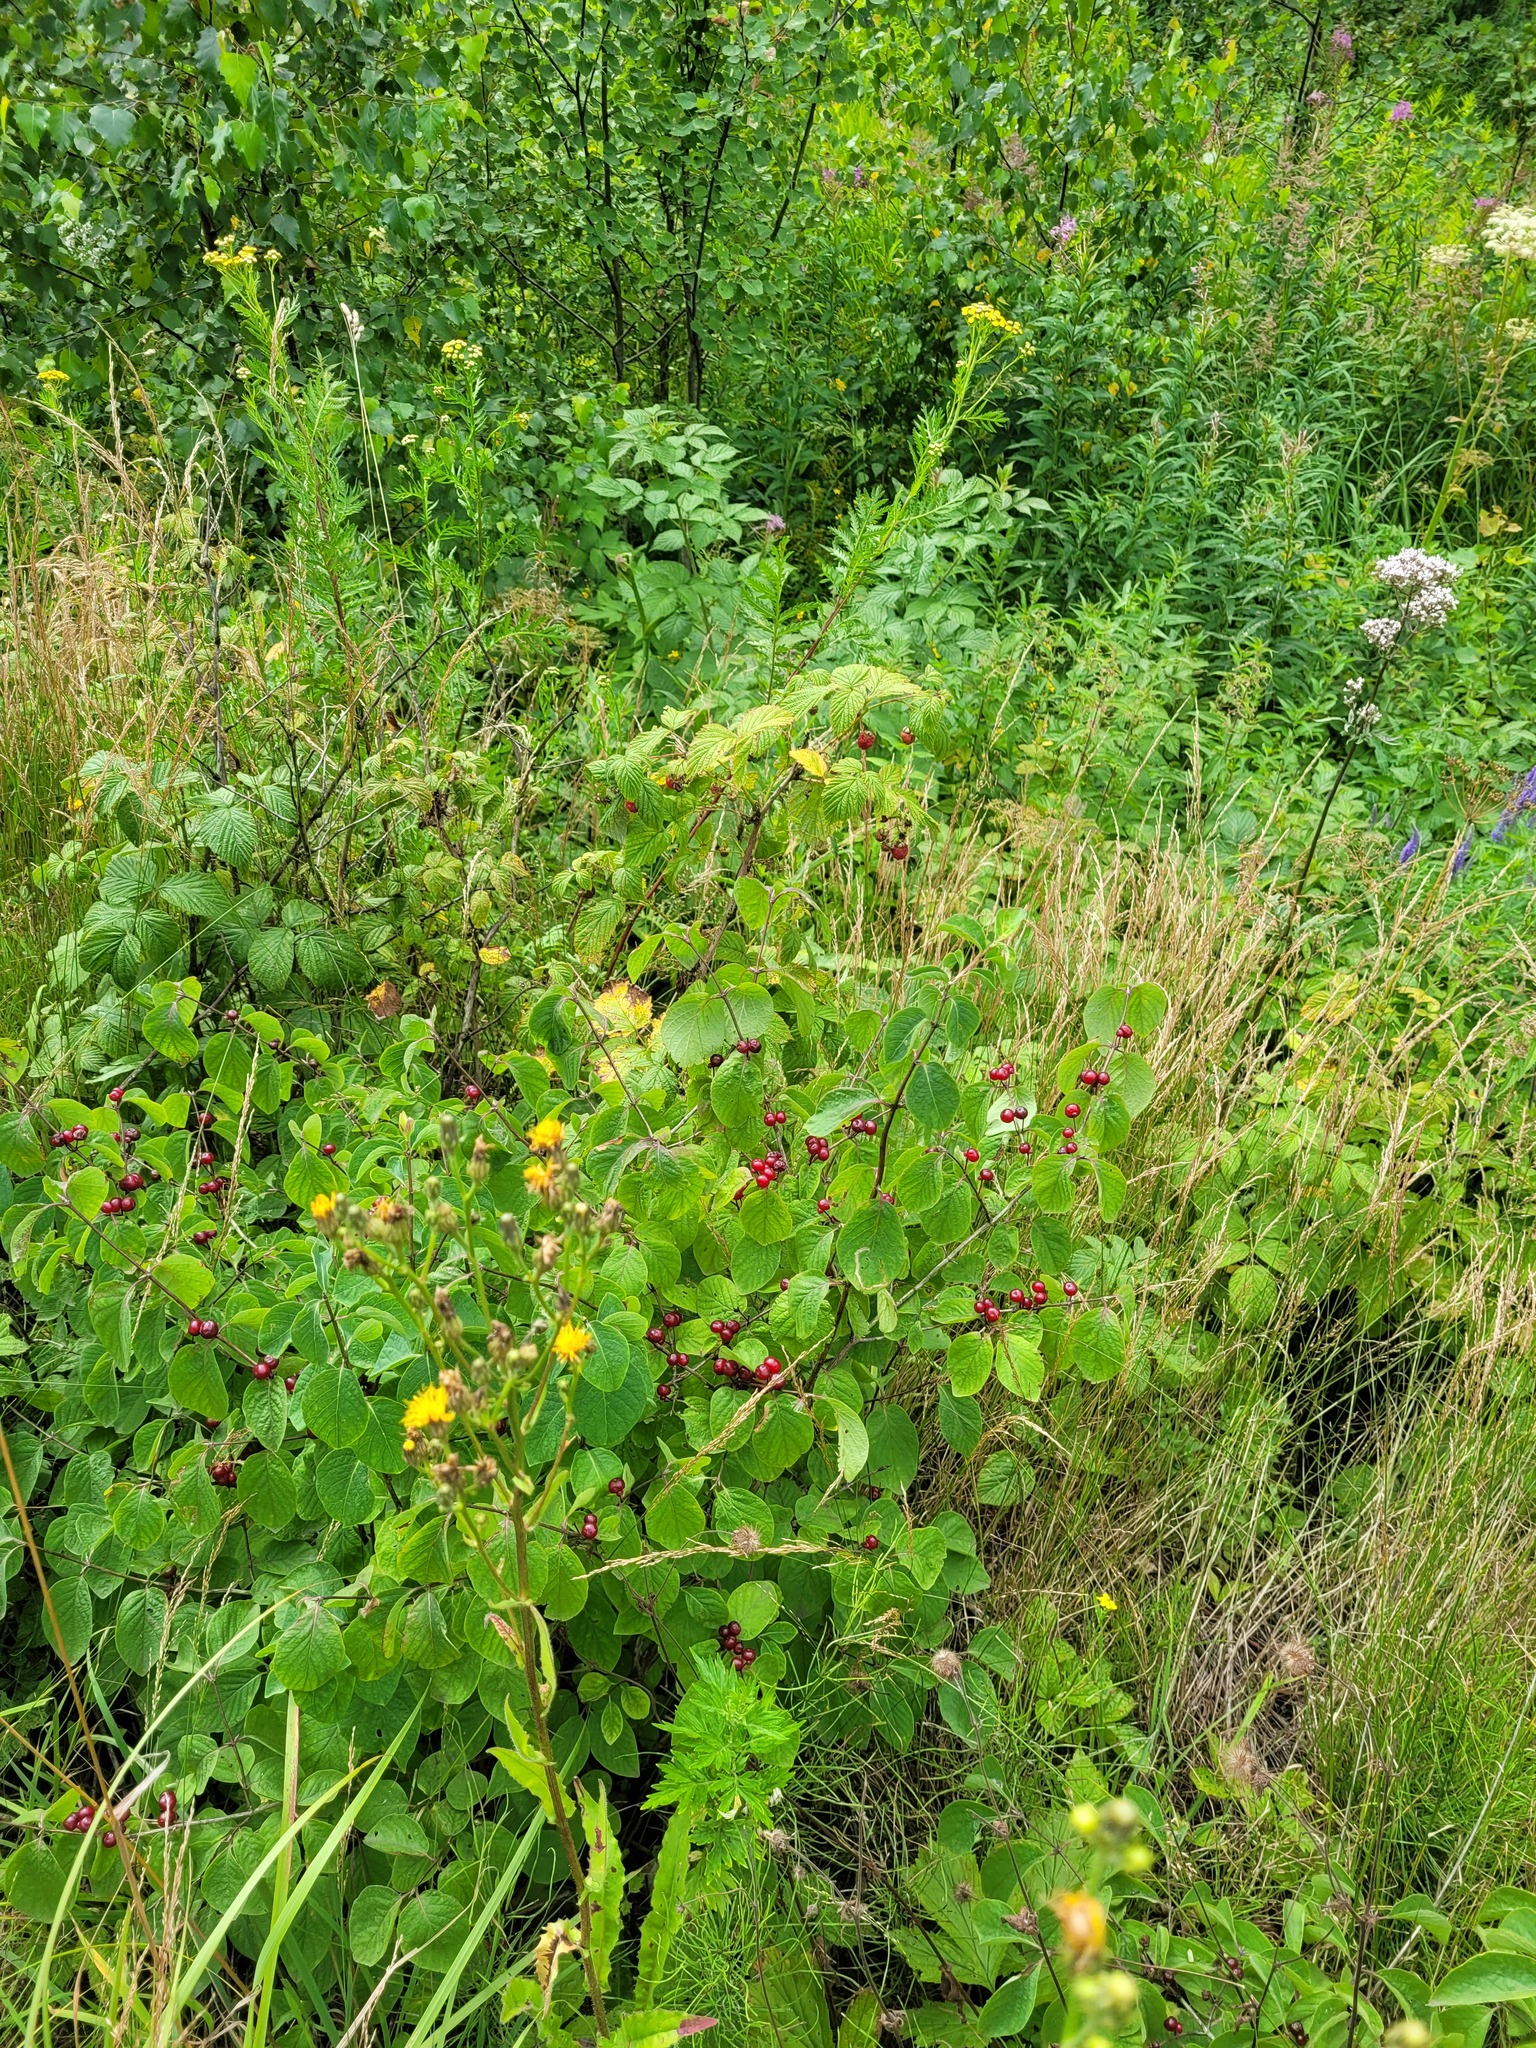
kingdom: Plantae
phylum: Tracheophyta
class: Magnoliopsida
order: Dipsacales
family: Caprifoliaceae
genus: Lonicera
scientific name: Lonicera xylosteum
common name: Fly honeysuckle
